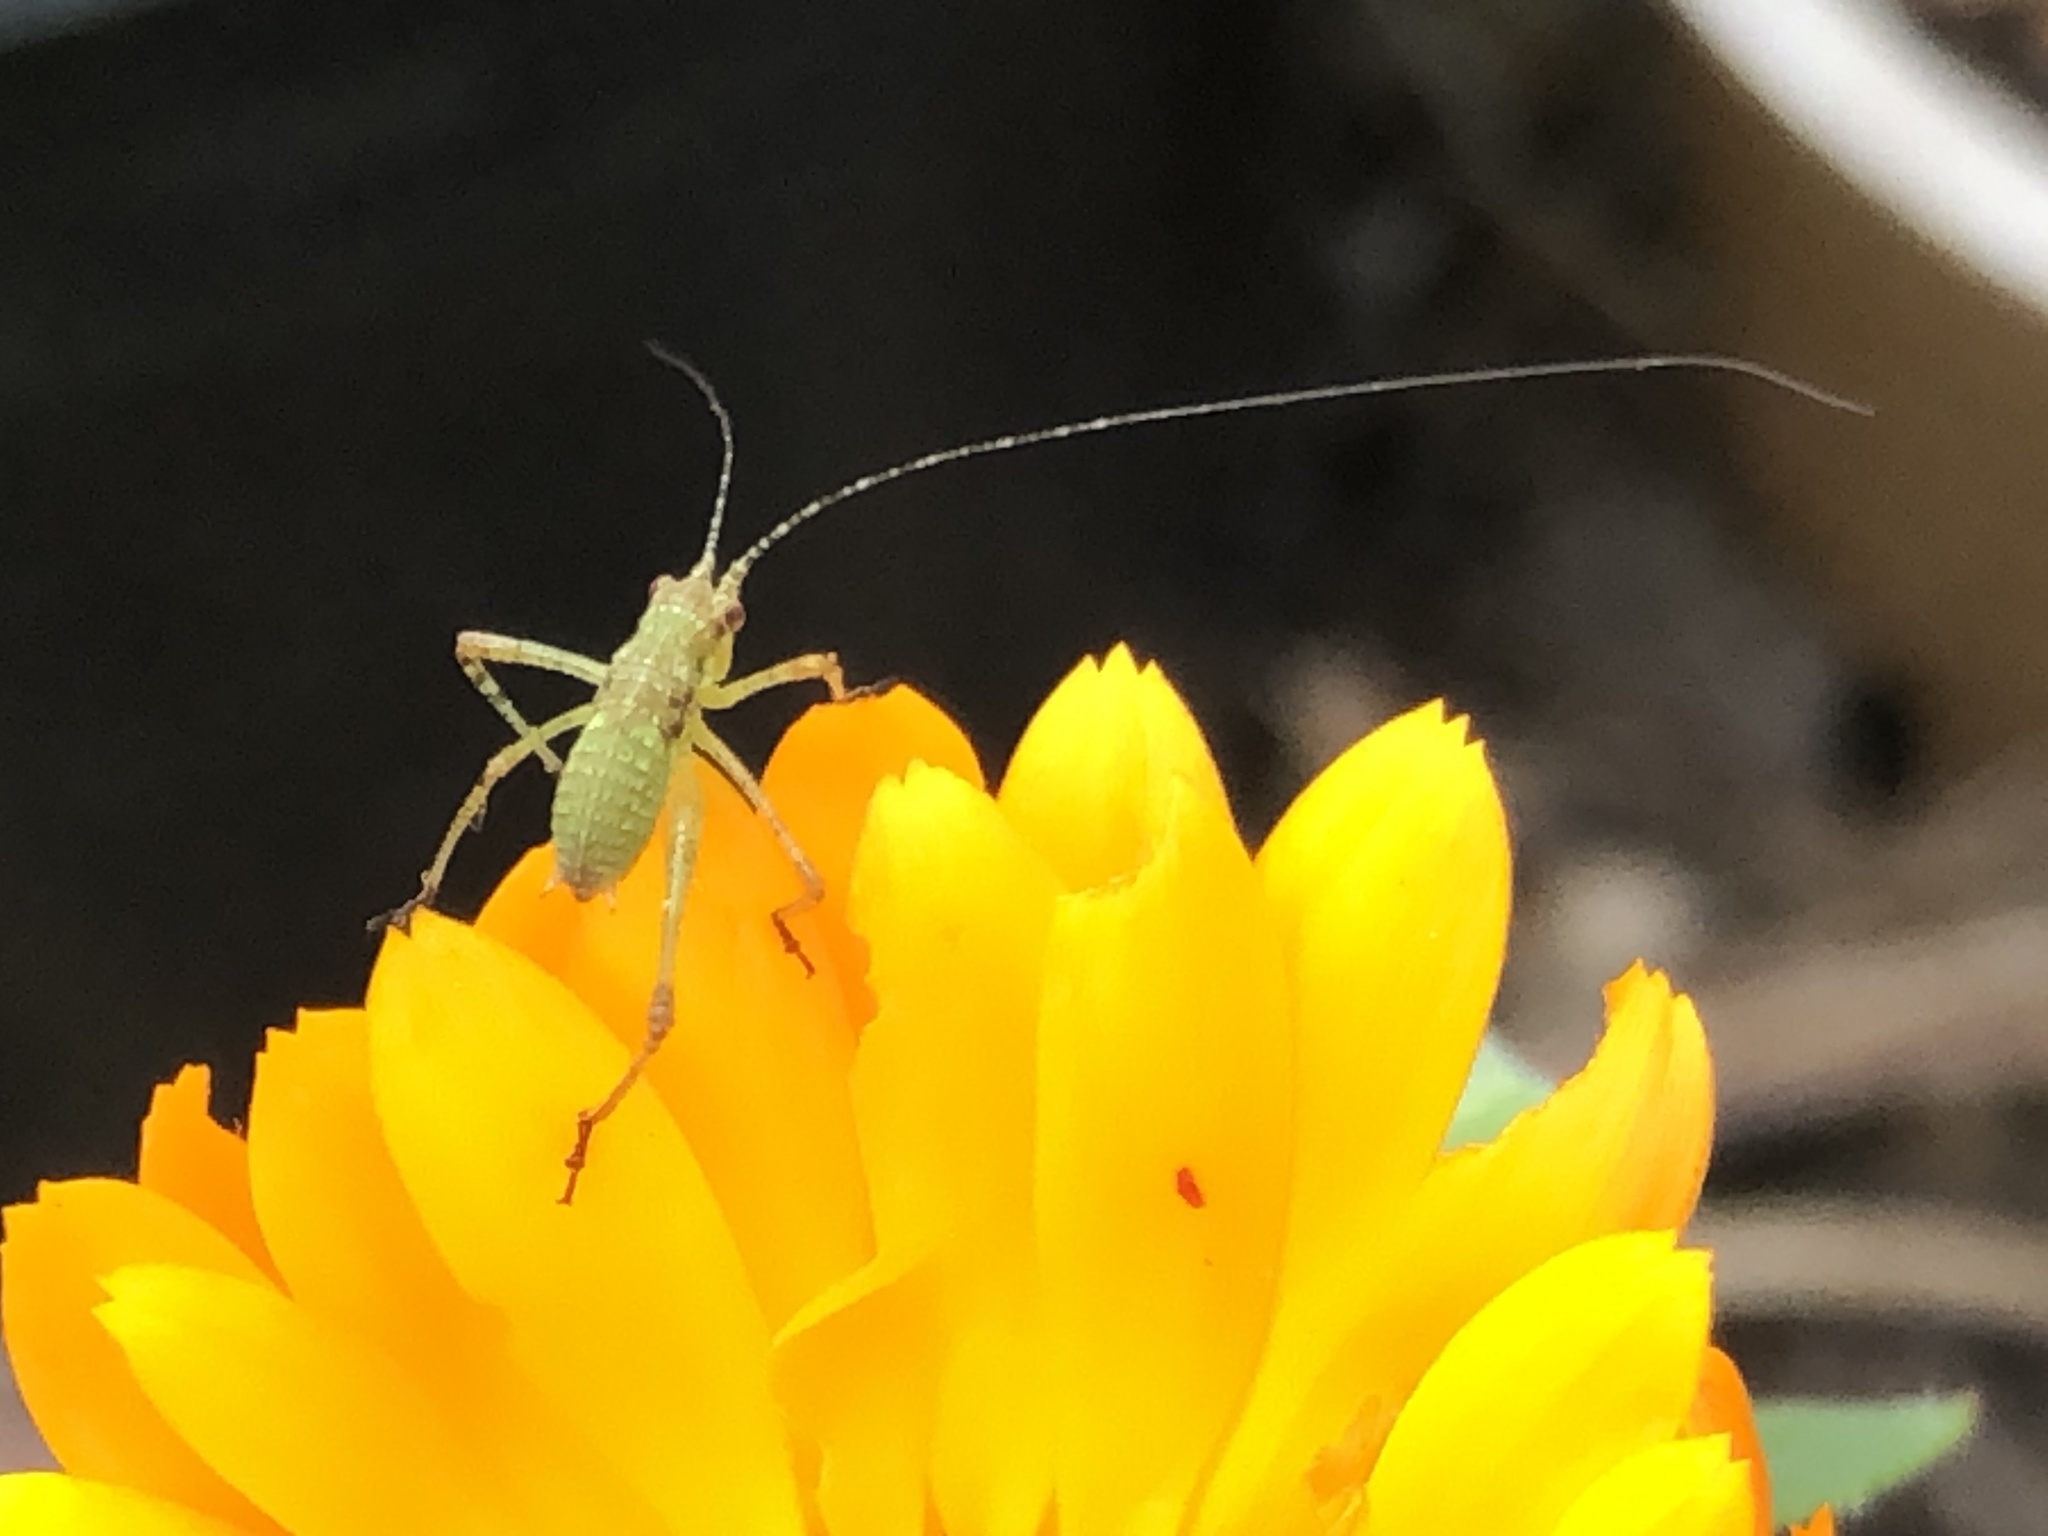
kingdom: Animalia
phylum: Arthropoda
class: Insecta
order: Orthoptera
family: Tettigoniidae
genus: Phaneroptera
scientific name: Phaneroptera nana
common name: Southern sickle bush-cricket
